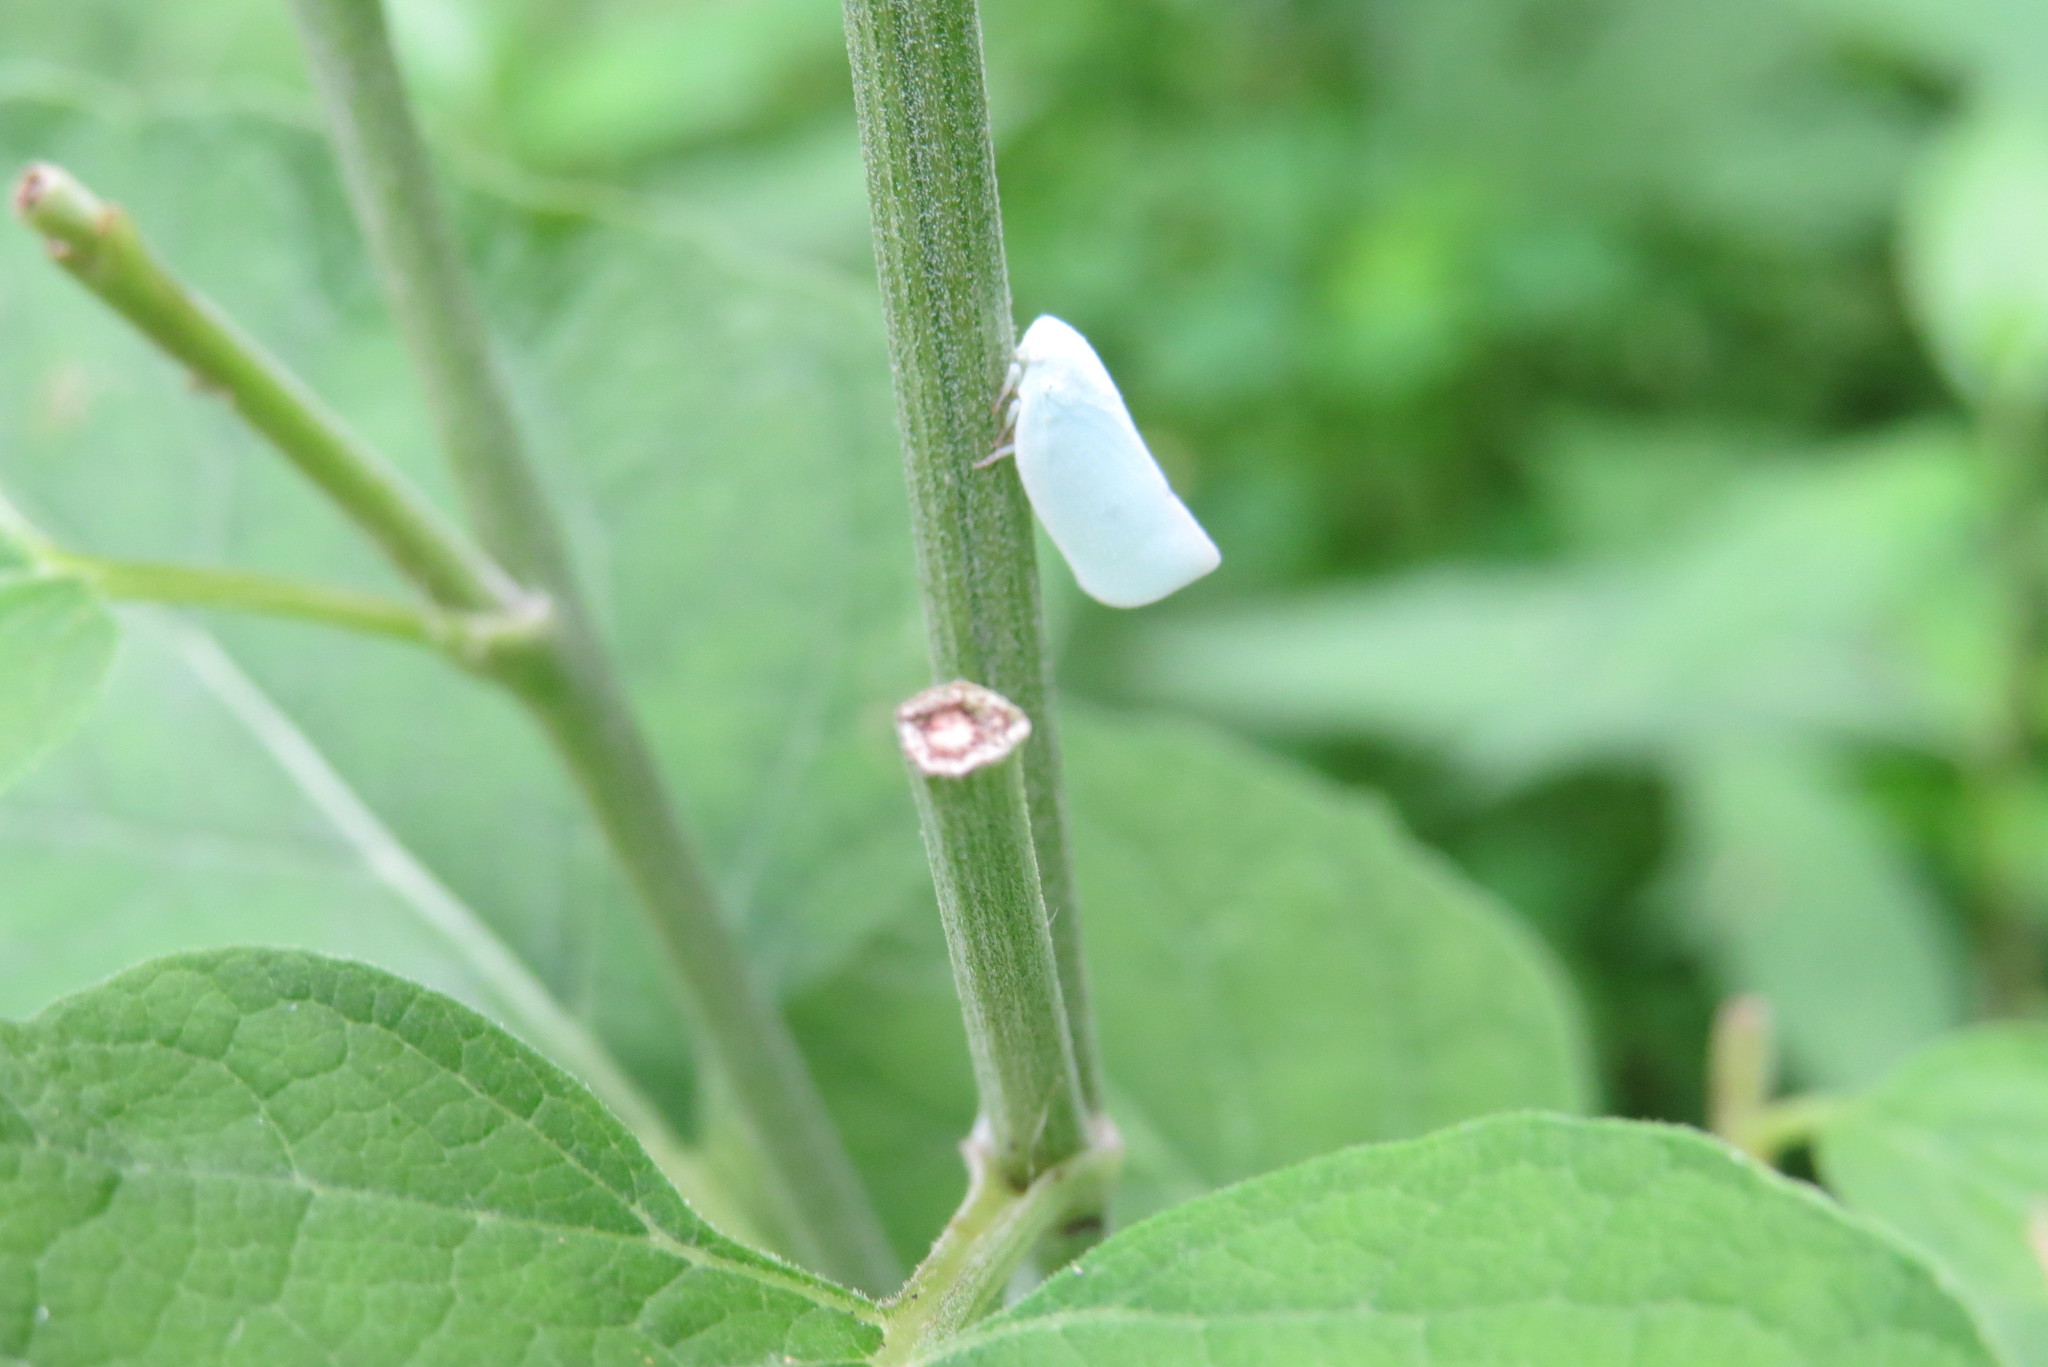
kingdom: Animalia
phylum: Arthropoda
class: Insecta
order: Hemiptera
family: Flatidae
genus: Flatormenis
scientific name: Flatormenis proxima
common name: Northern flatid planthopper
